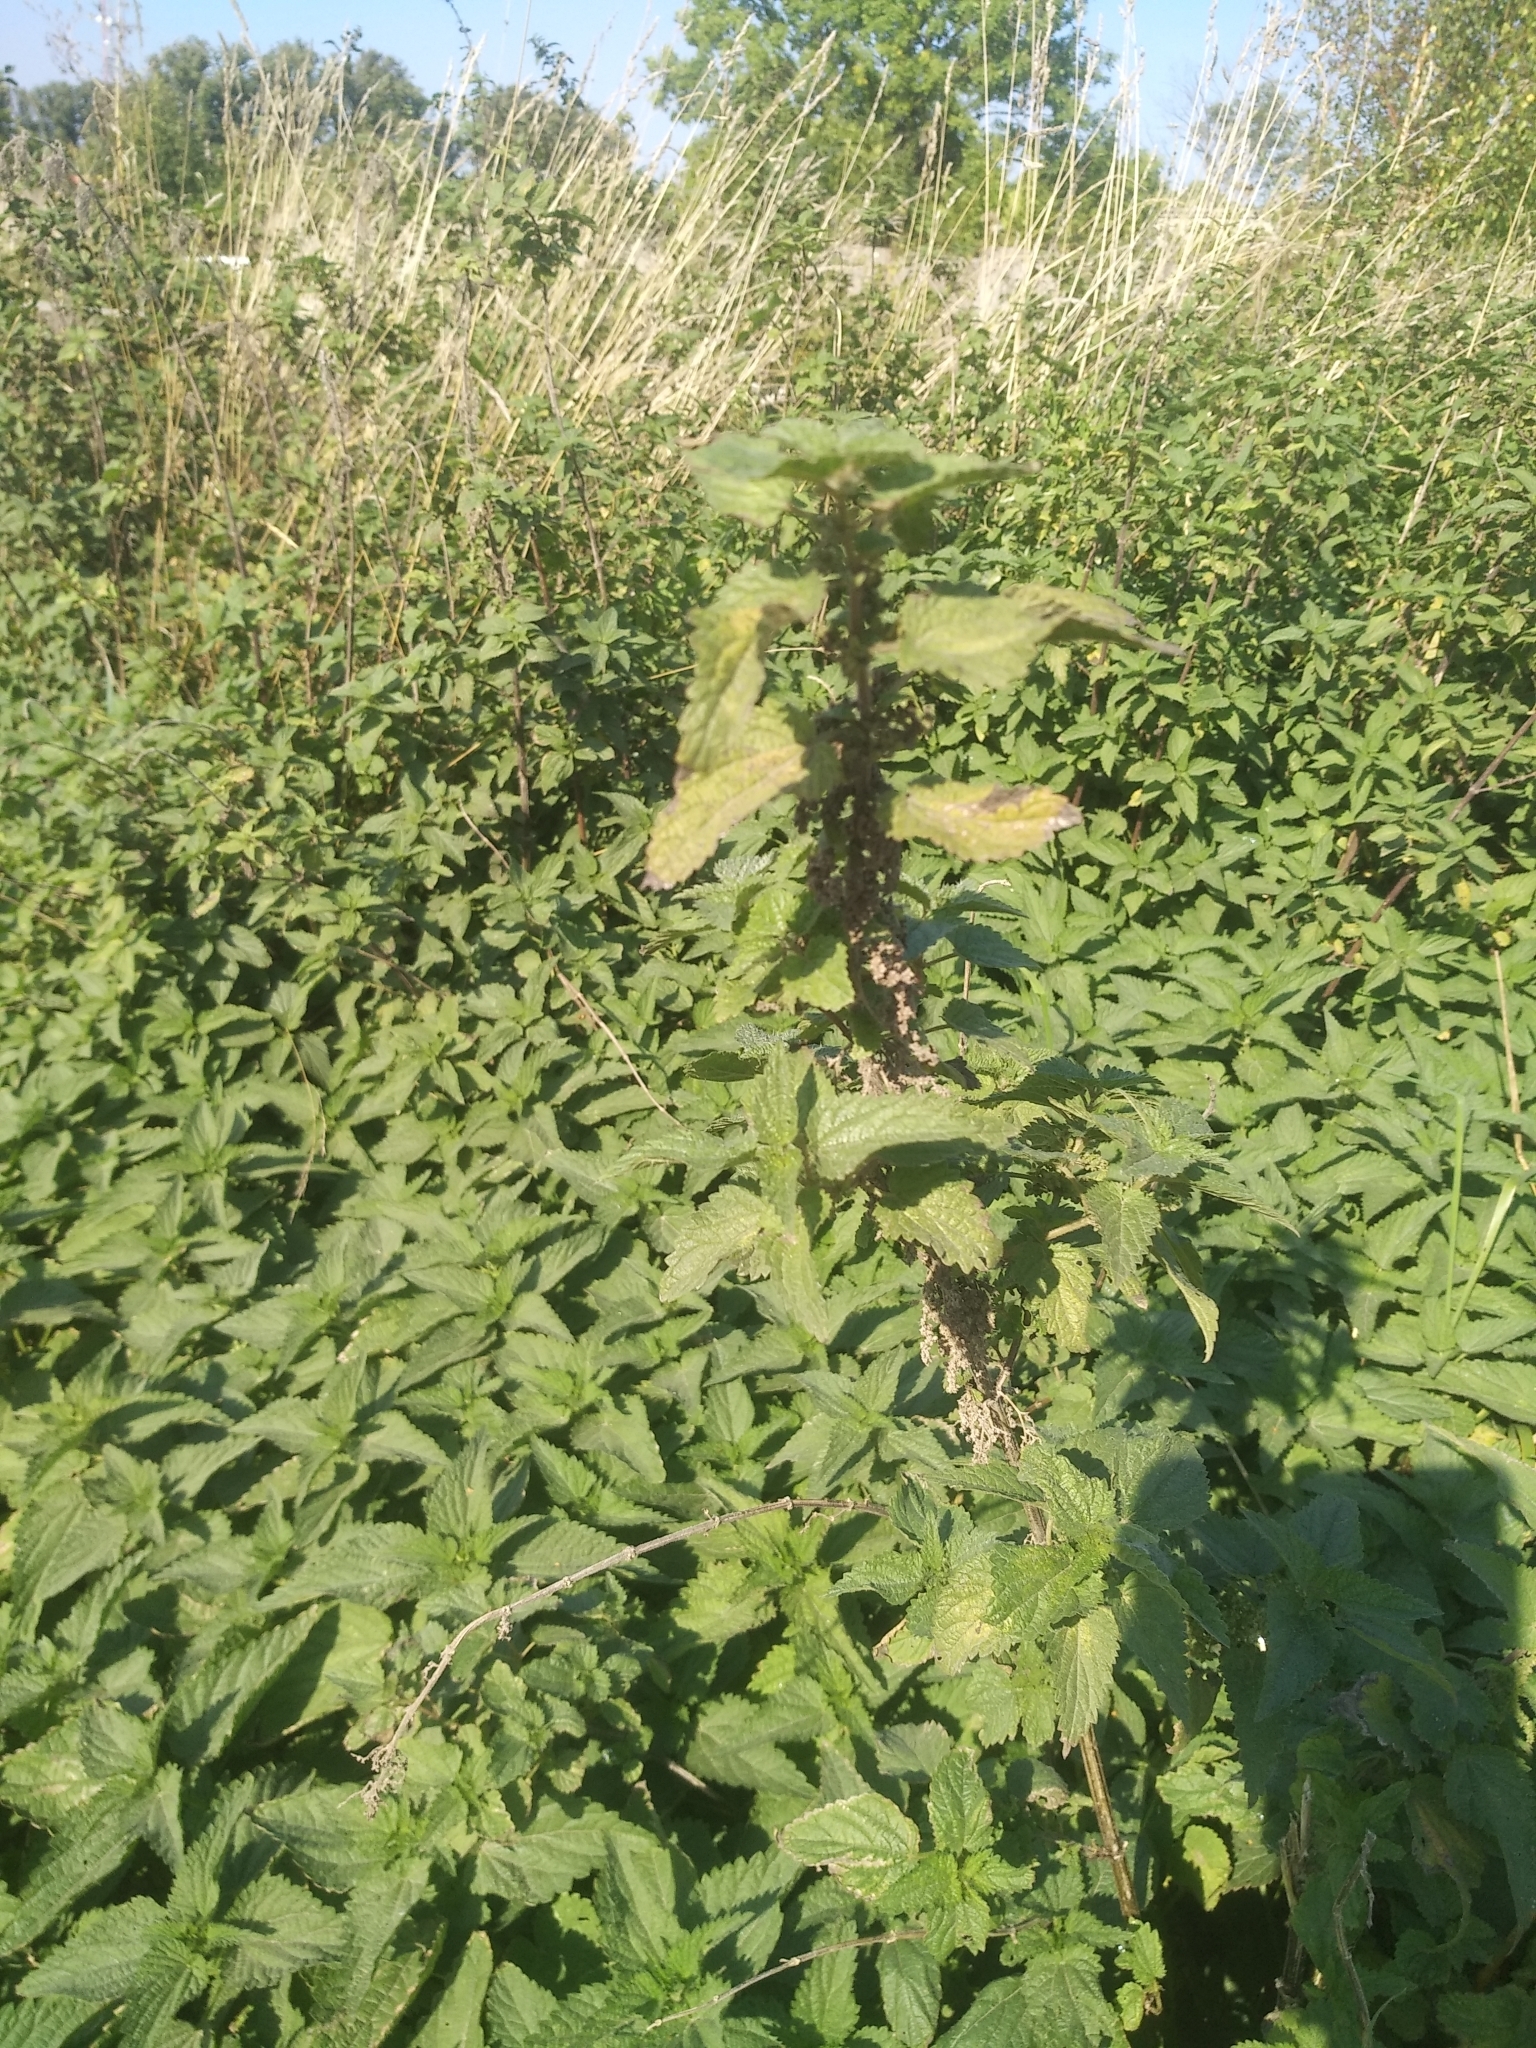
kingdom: Plantae
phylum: Tracheophyta
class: Magnoliopsida
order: Rosales
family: Urticaceae
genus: Urtica
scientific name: Urtica dioica
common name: Common nettle
